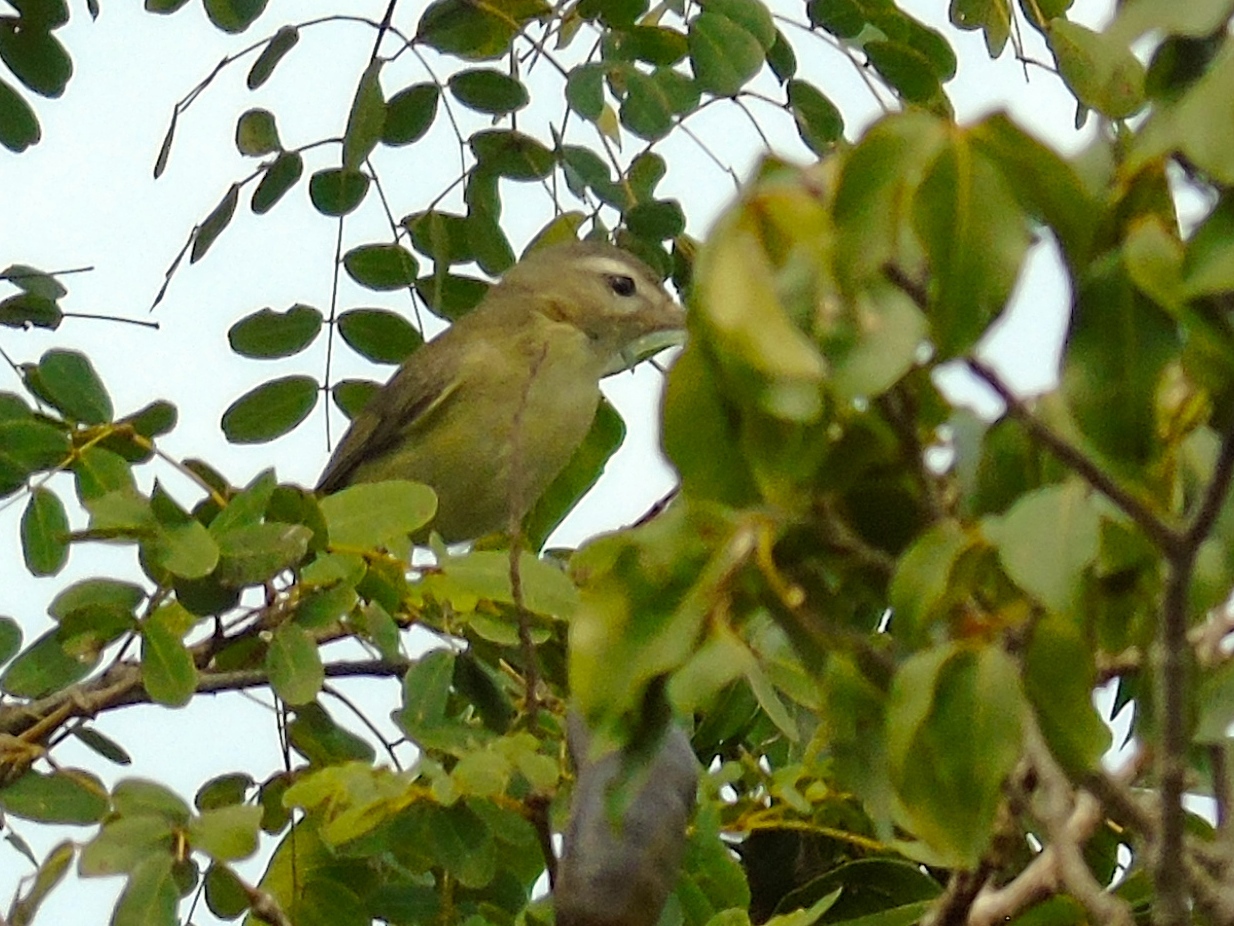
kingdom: Animalia
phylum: Chordata
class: Aves
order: Passeriformes
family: Vireonidae
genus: Vireo
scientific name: Vireo gilvus
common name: Warbling vireo
